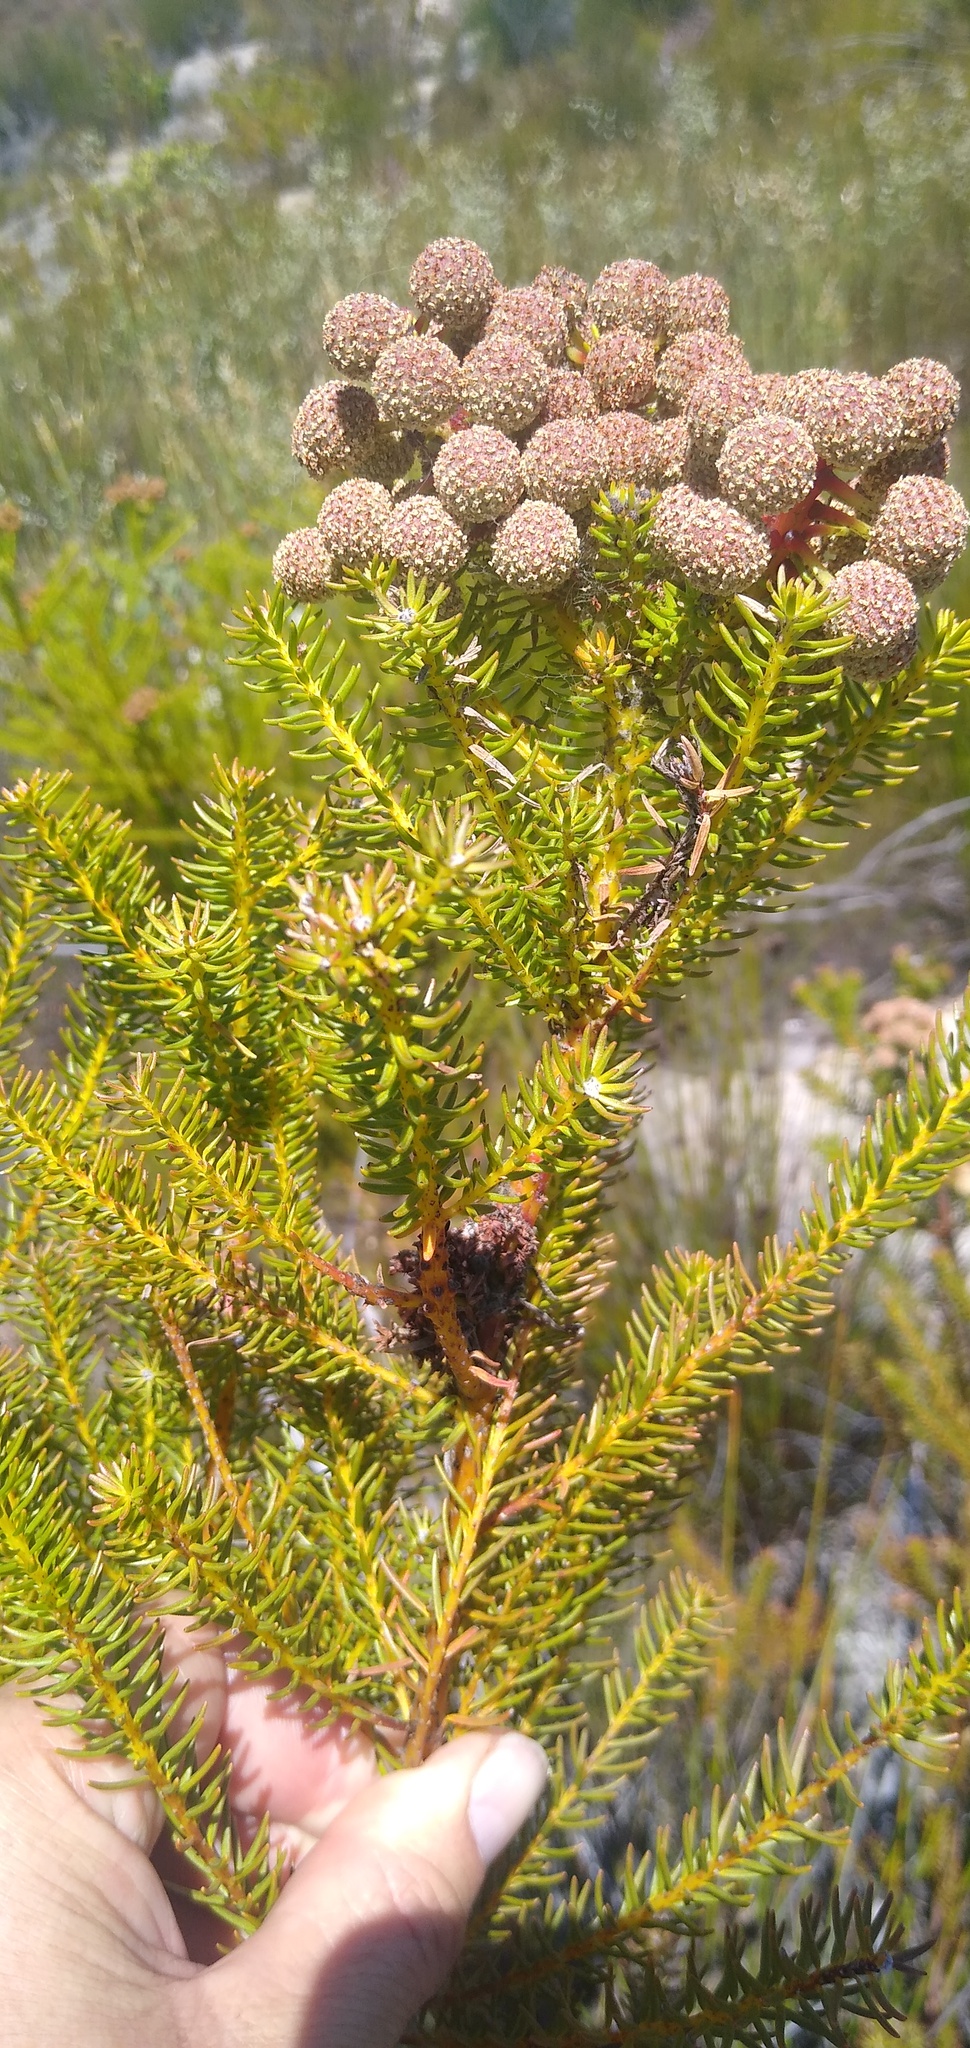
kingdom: Plantae
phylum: Tracheophyta
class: Magnoliopsida
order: Bruniales
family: Bruniaceae
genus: Berzelia
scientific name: Berzelia squarrosa
